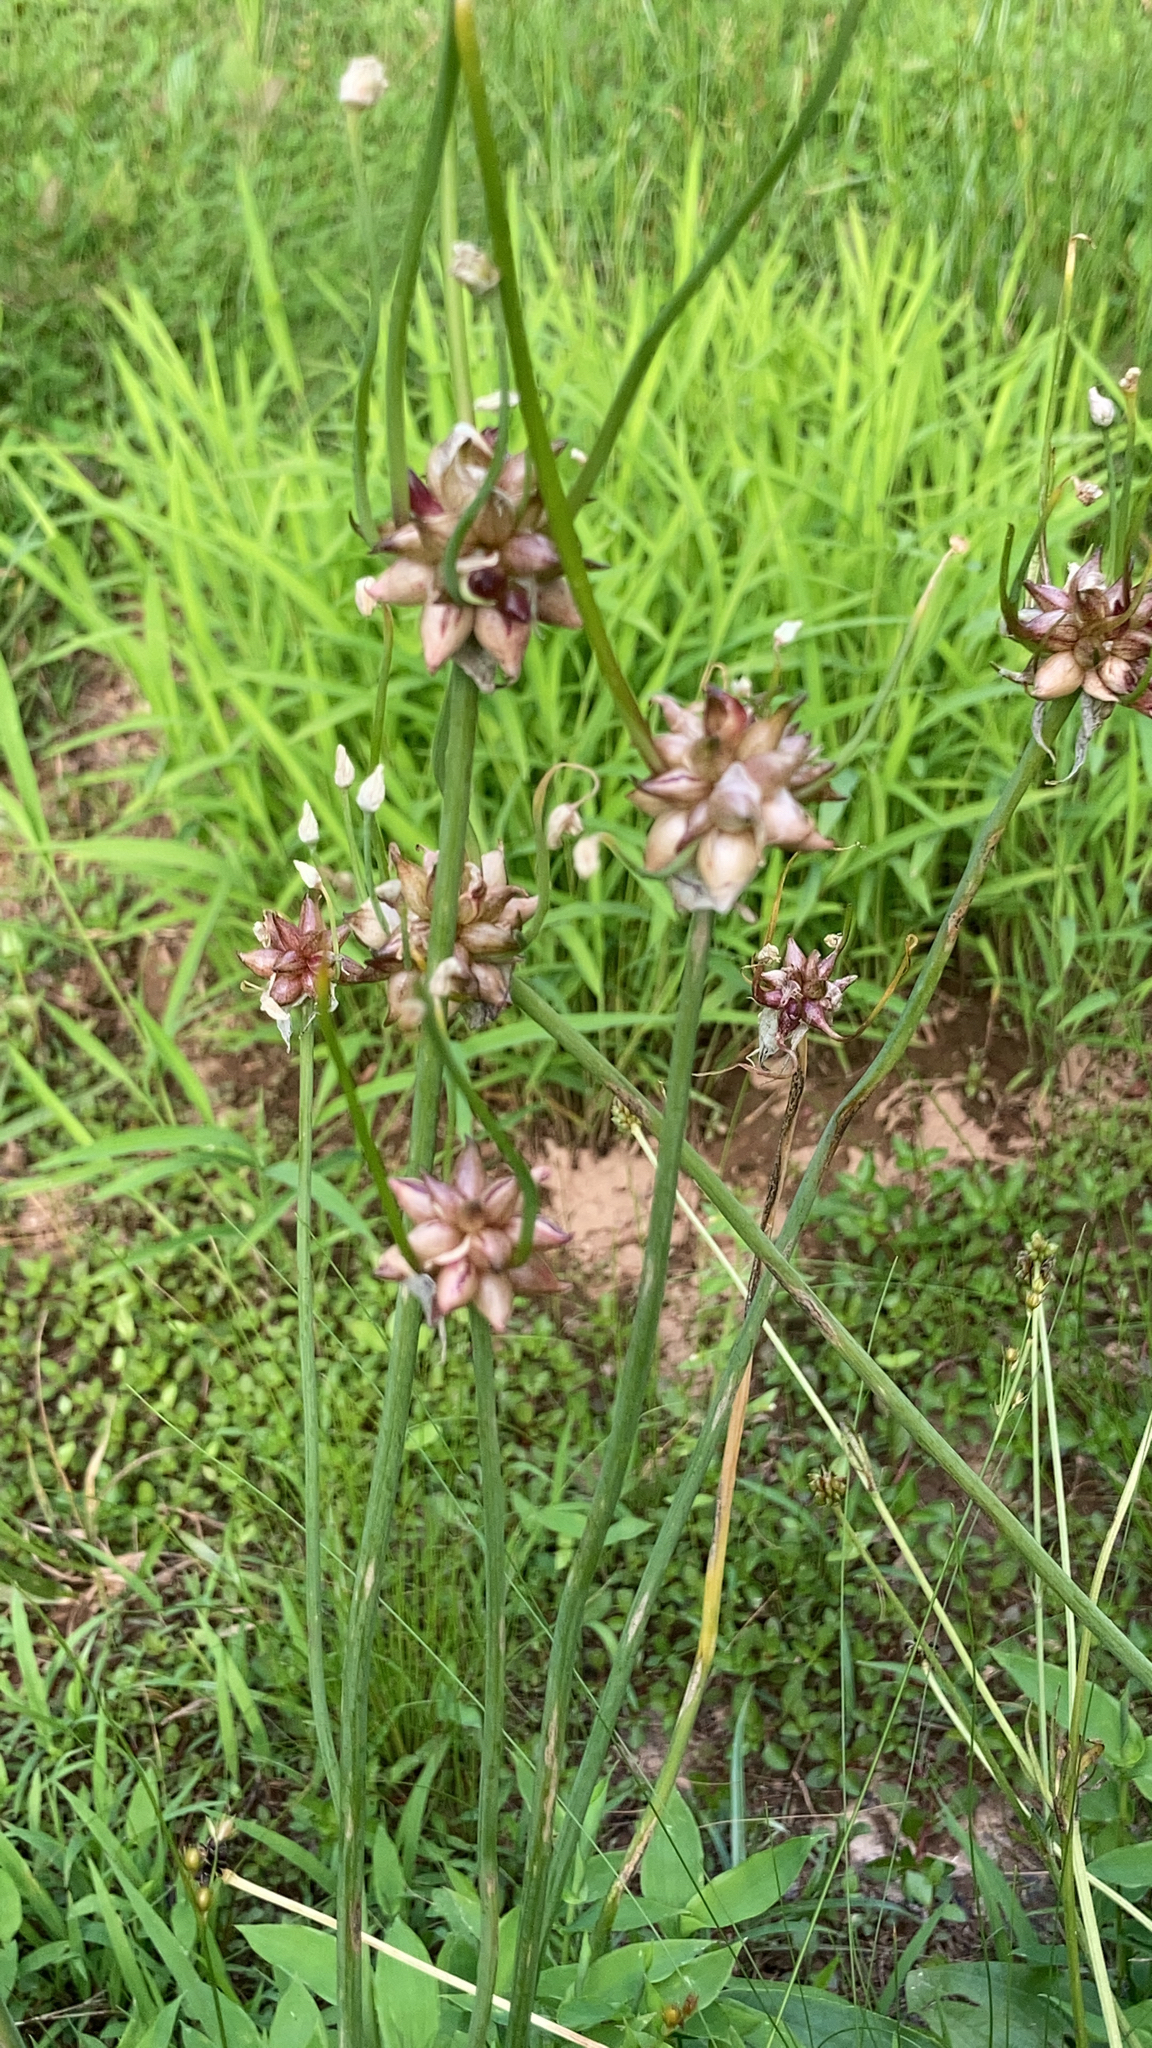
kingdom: Plantae
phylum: Tracheophyta
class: Liliopsida
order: Asparagales
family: Amaryllidaceae
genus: Allium
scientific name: Allium canadense
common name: Meadow garlic
